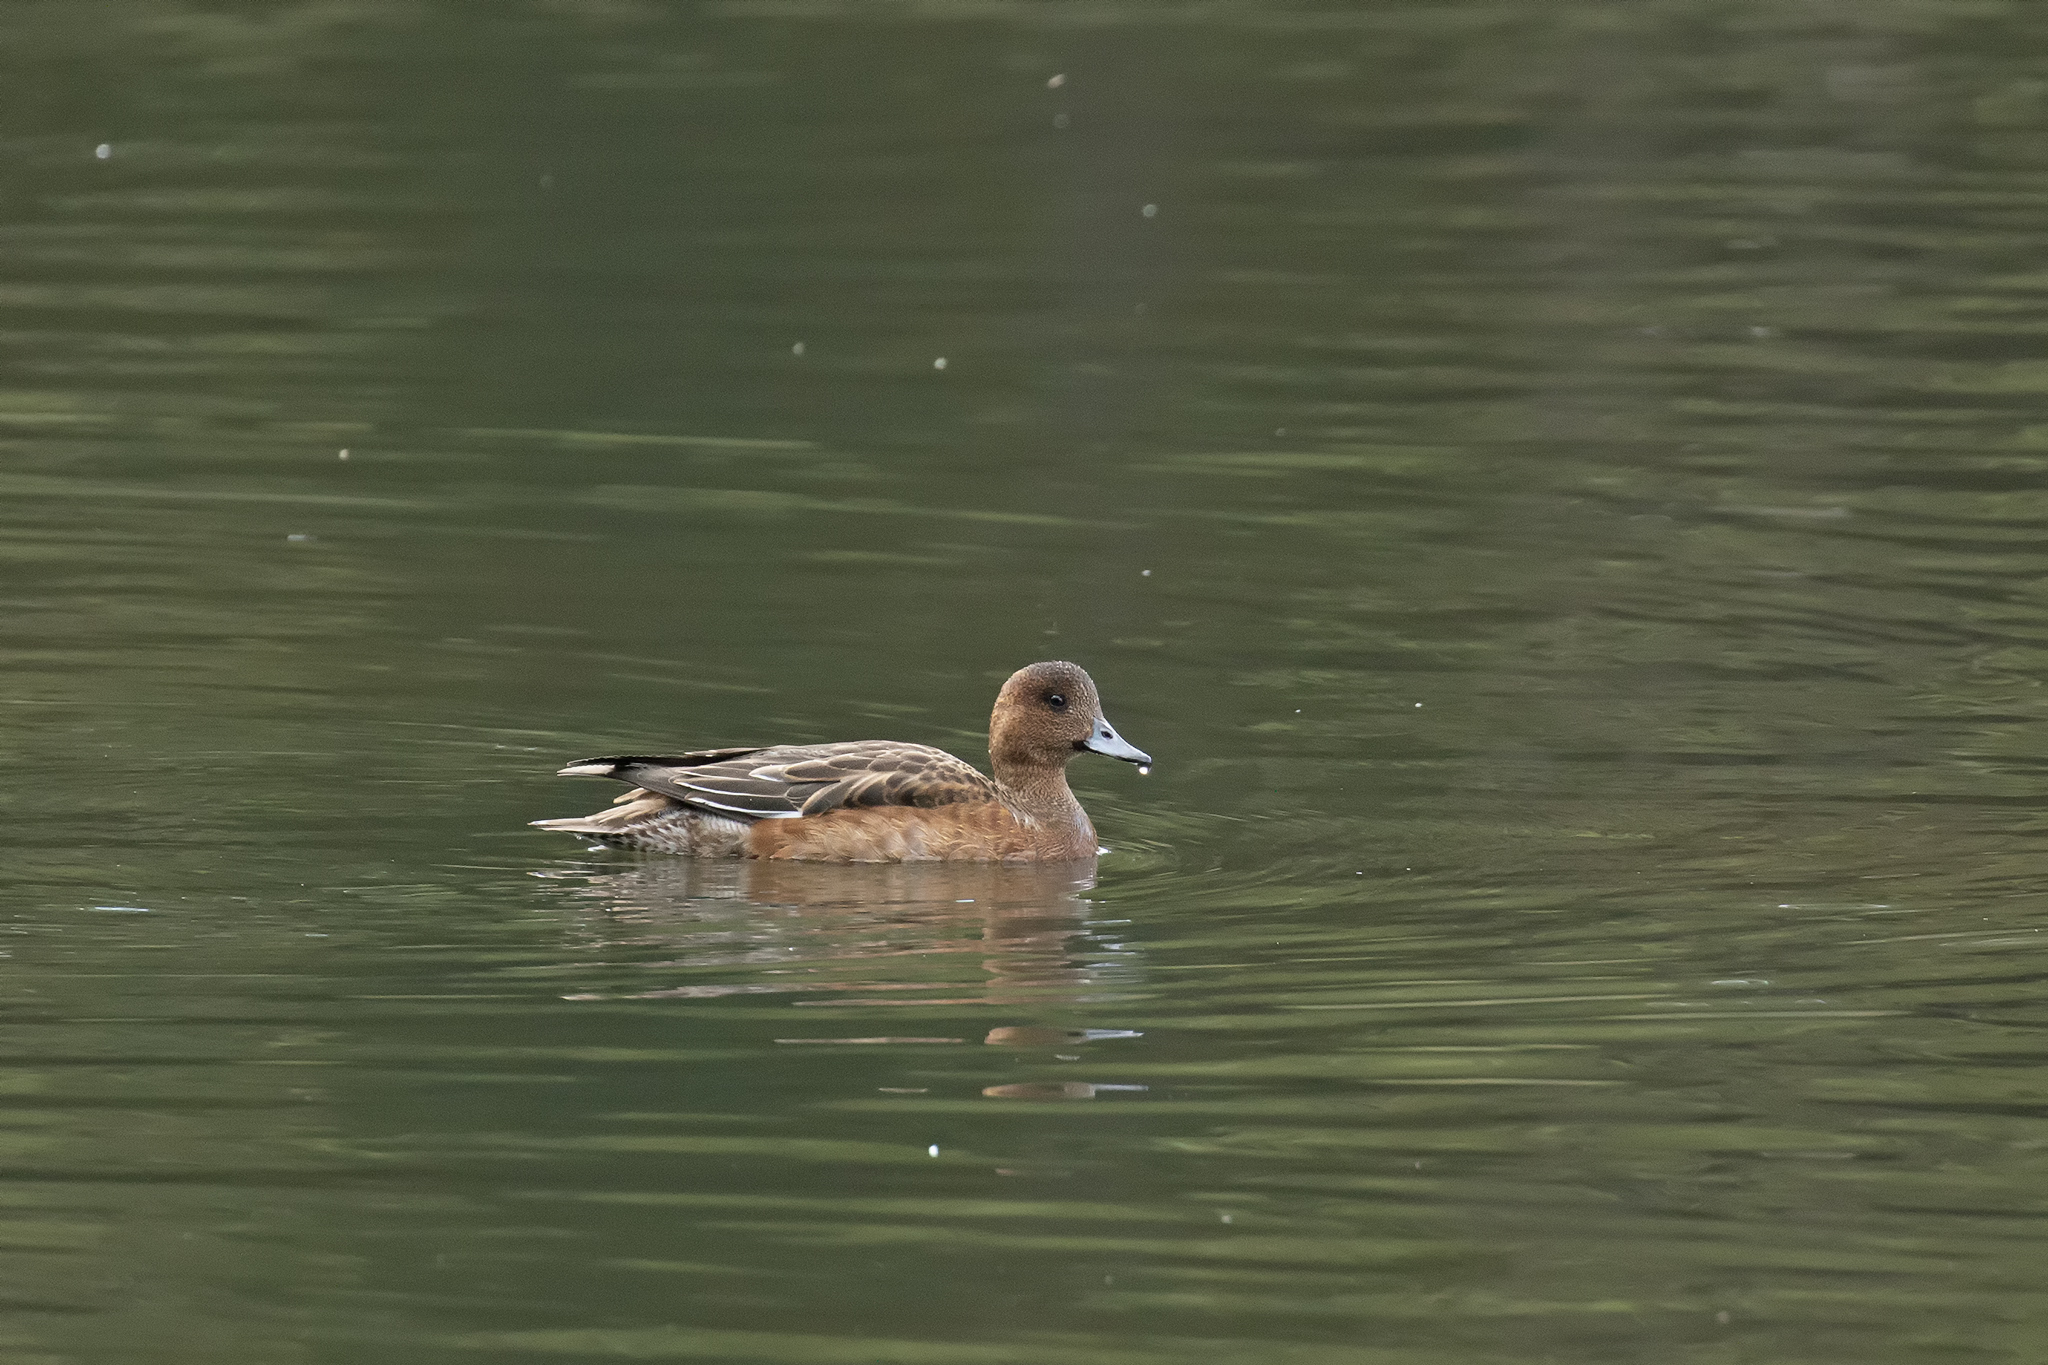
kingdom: Animalia
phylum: Chordata
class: Aves
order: Anseriformes
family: Anatidae
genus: Mareca
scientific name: Mareca penelope
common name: Eurasian wigeon
